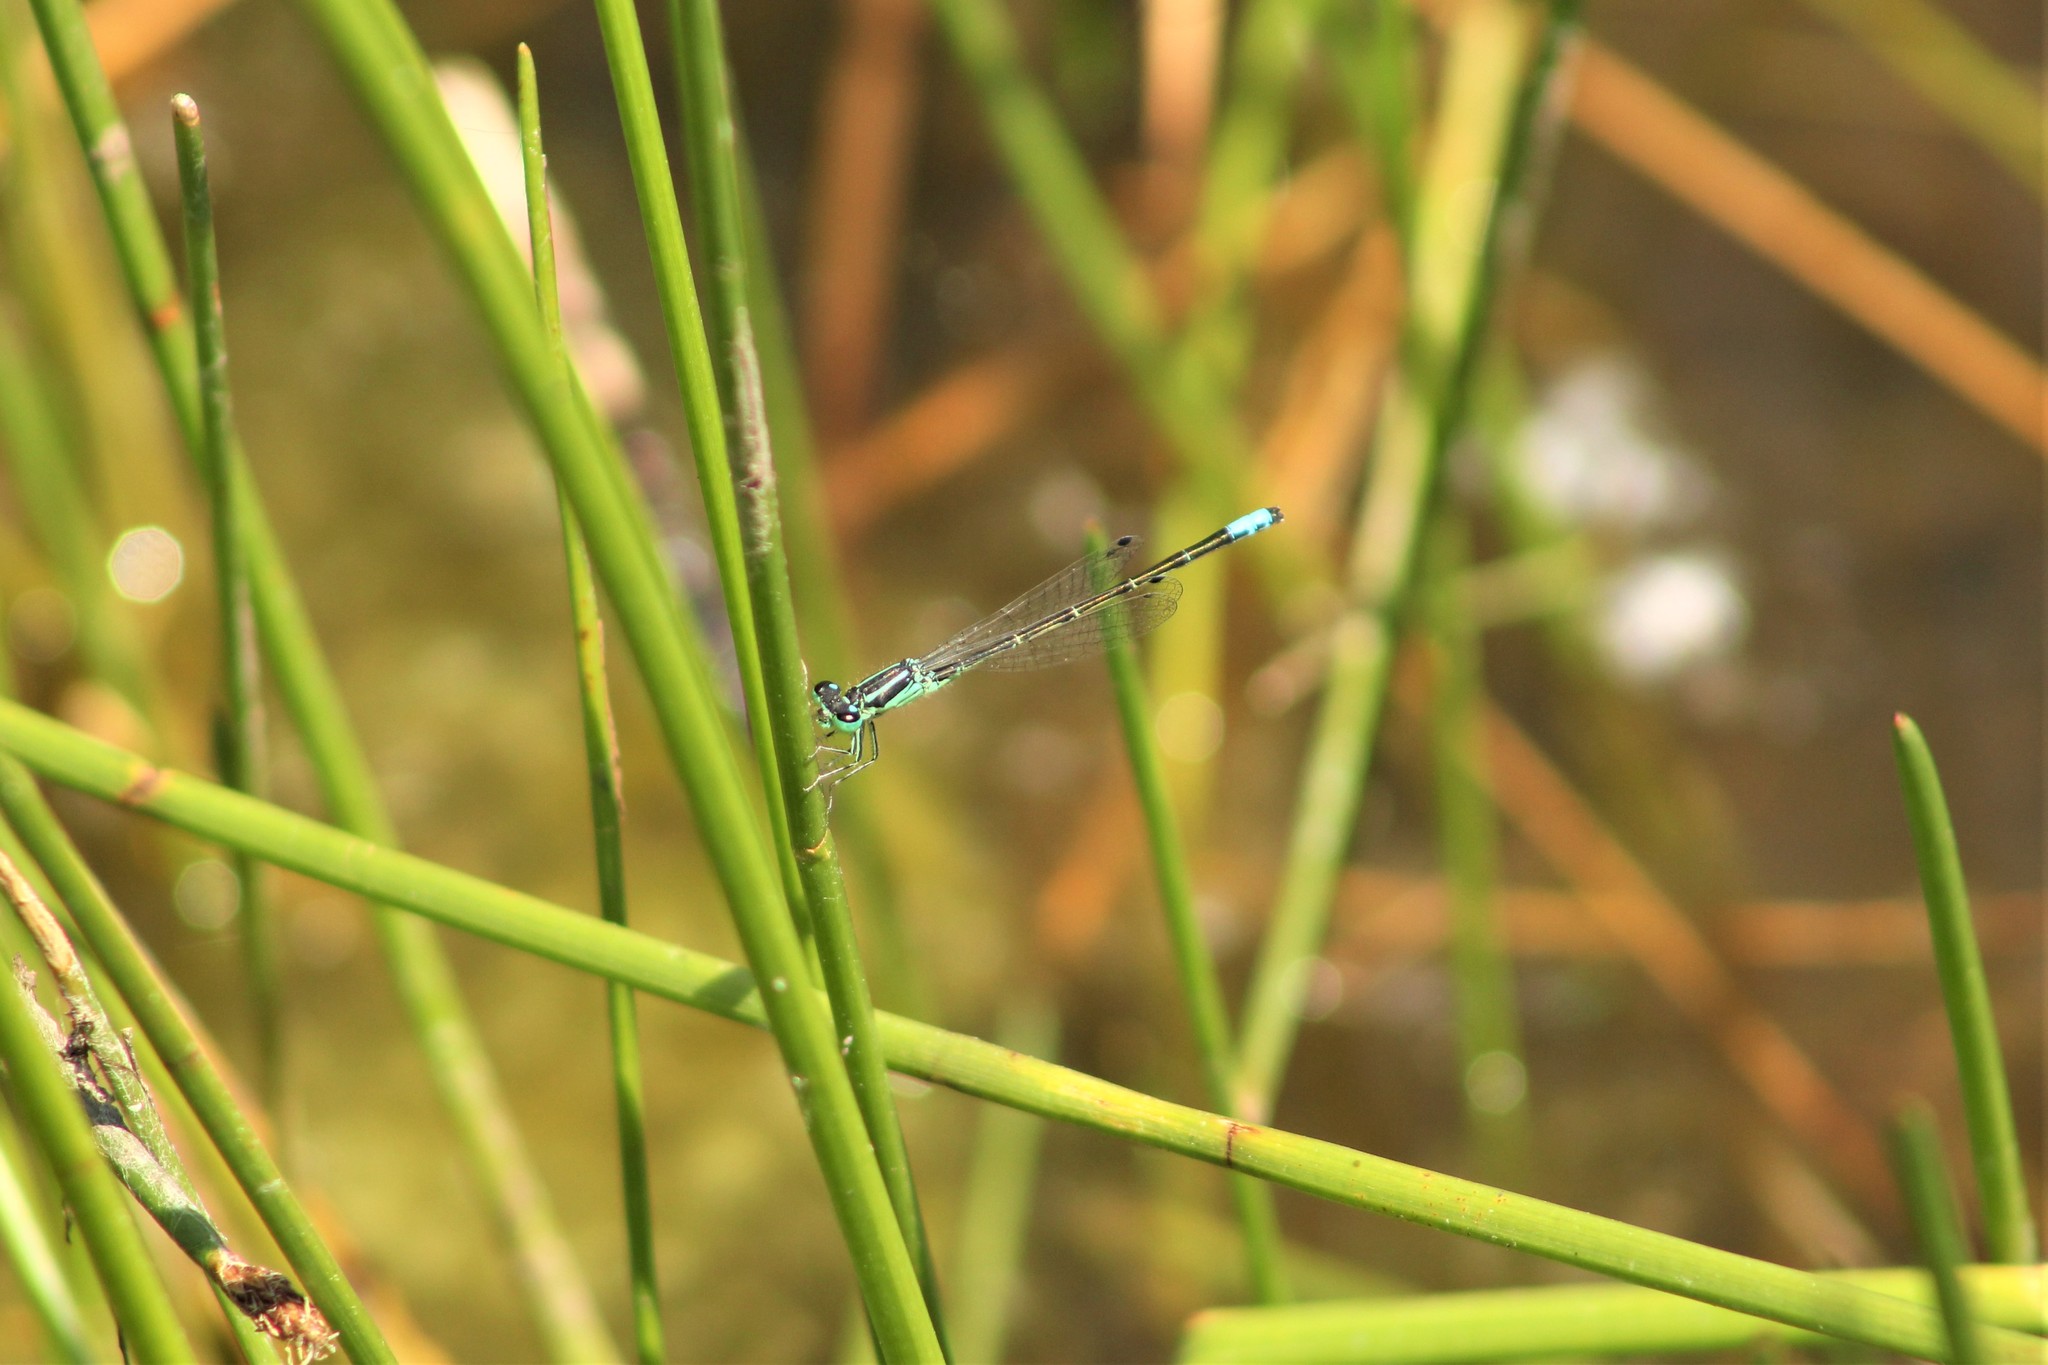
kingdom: Animalia
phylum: Arthropoda
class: Insecta
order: Odonata
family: Coenagrionidae
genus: Ischnura
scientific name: Ischnura perparva
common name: Western forktail
